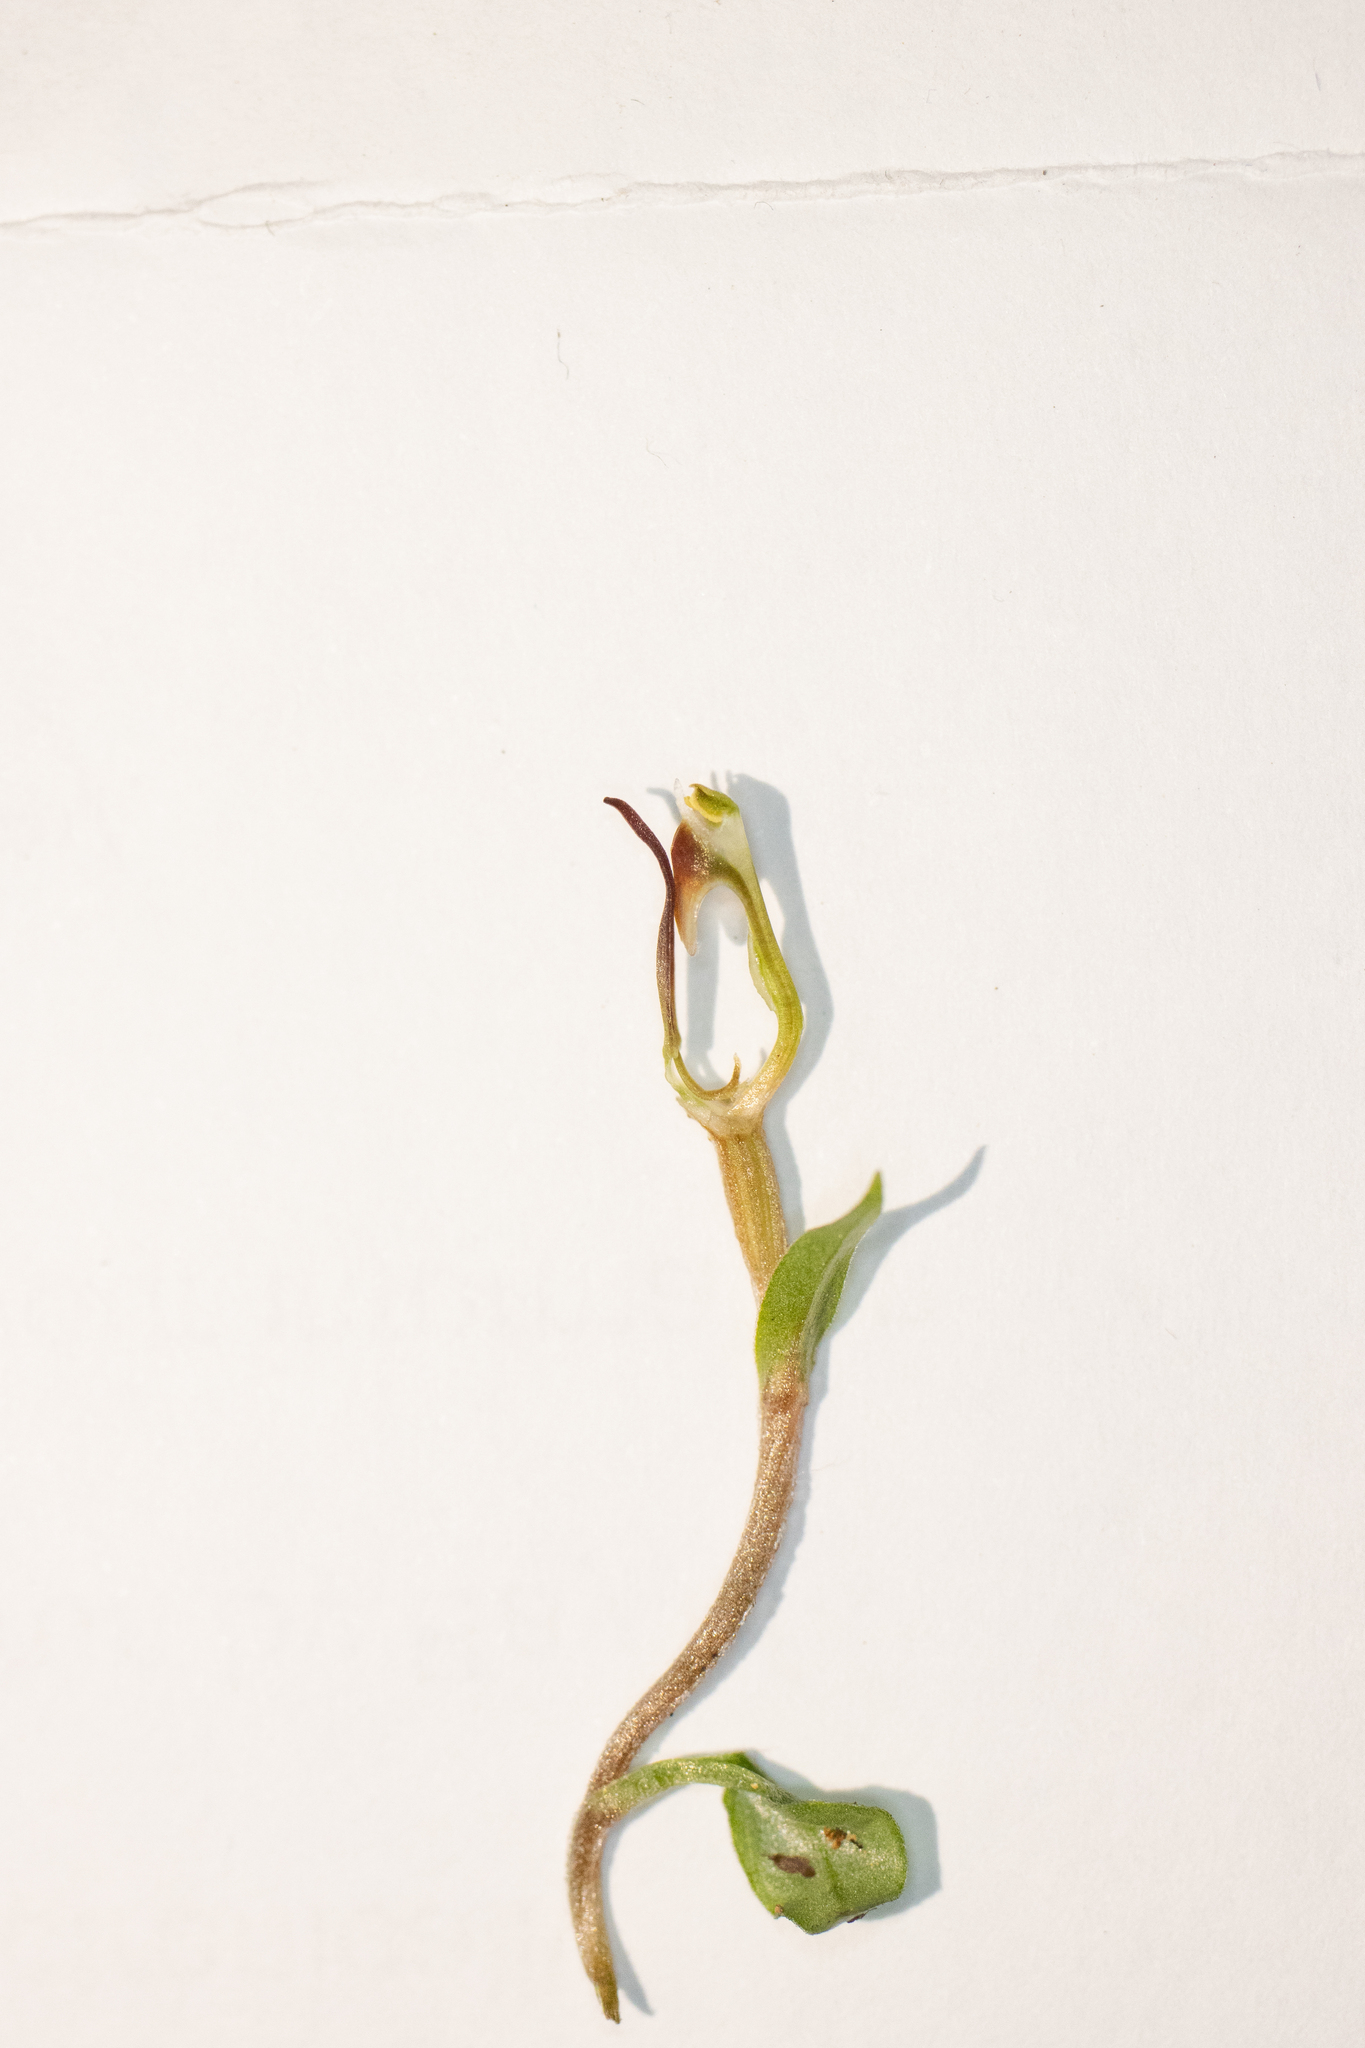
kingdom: Plantae
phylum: Tracheophyta
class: Liliopsida
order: Asparagales
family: Orchidaceae
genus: Pterostylis
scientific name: Pterostylis alobula
